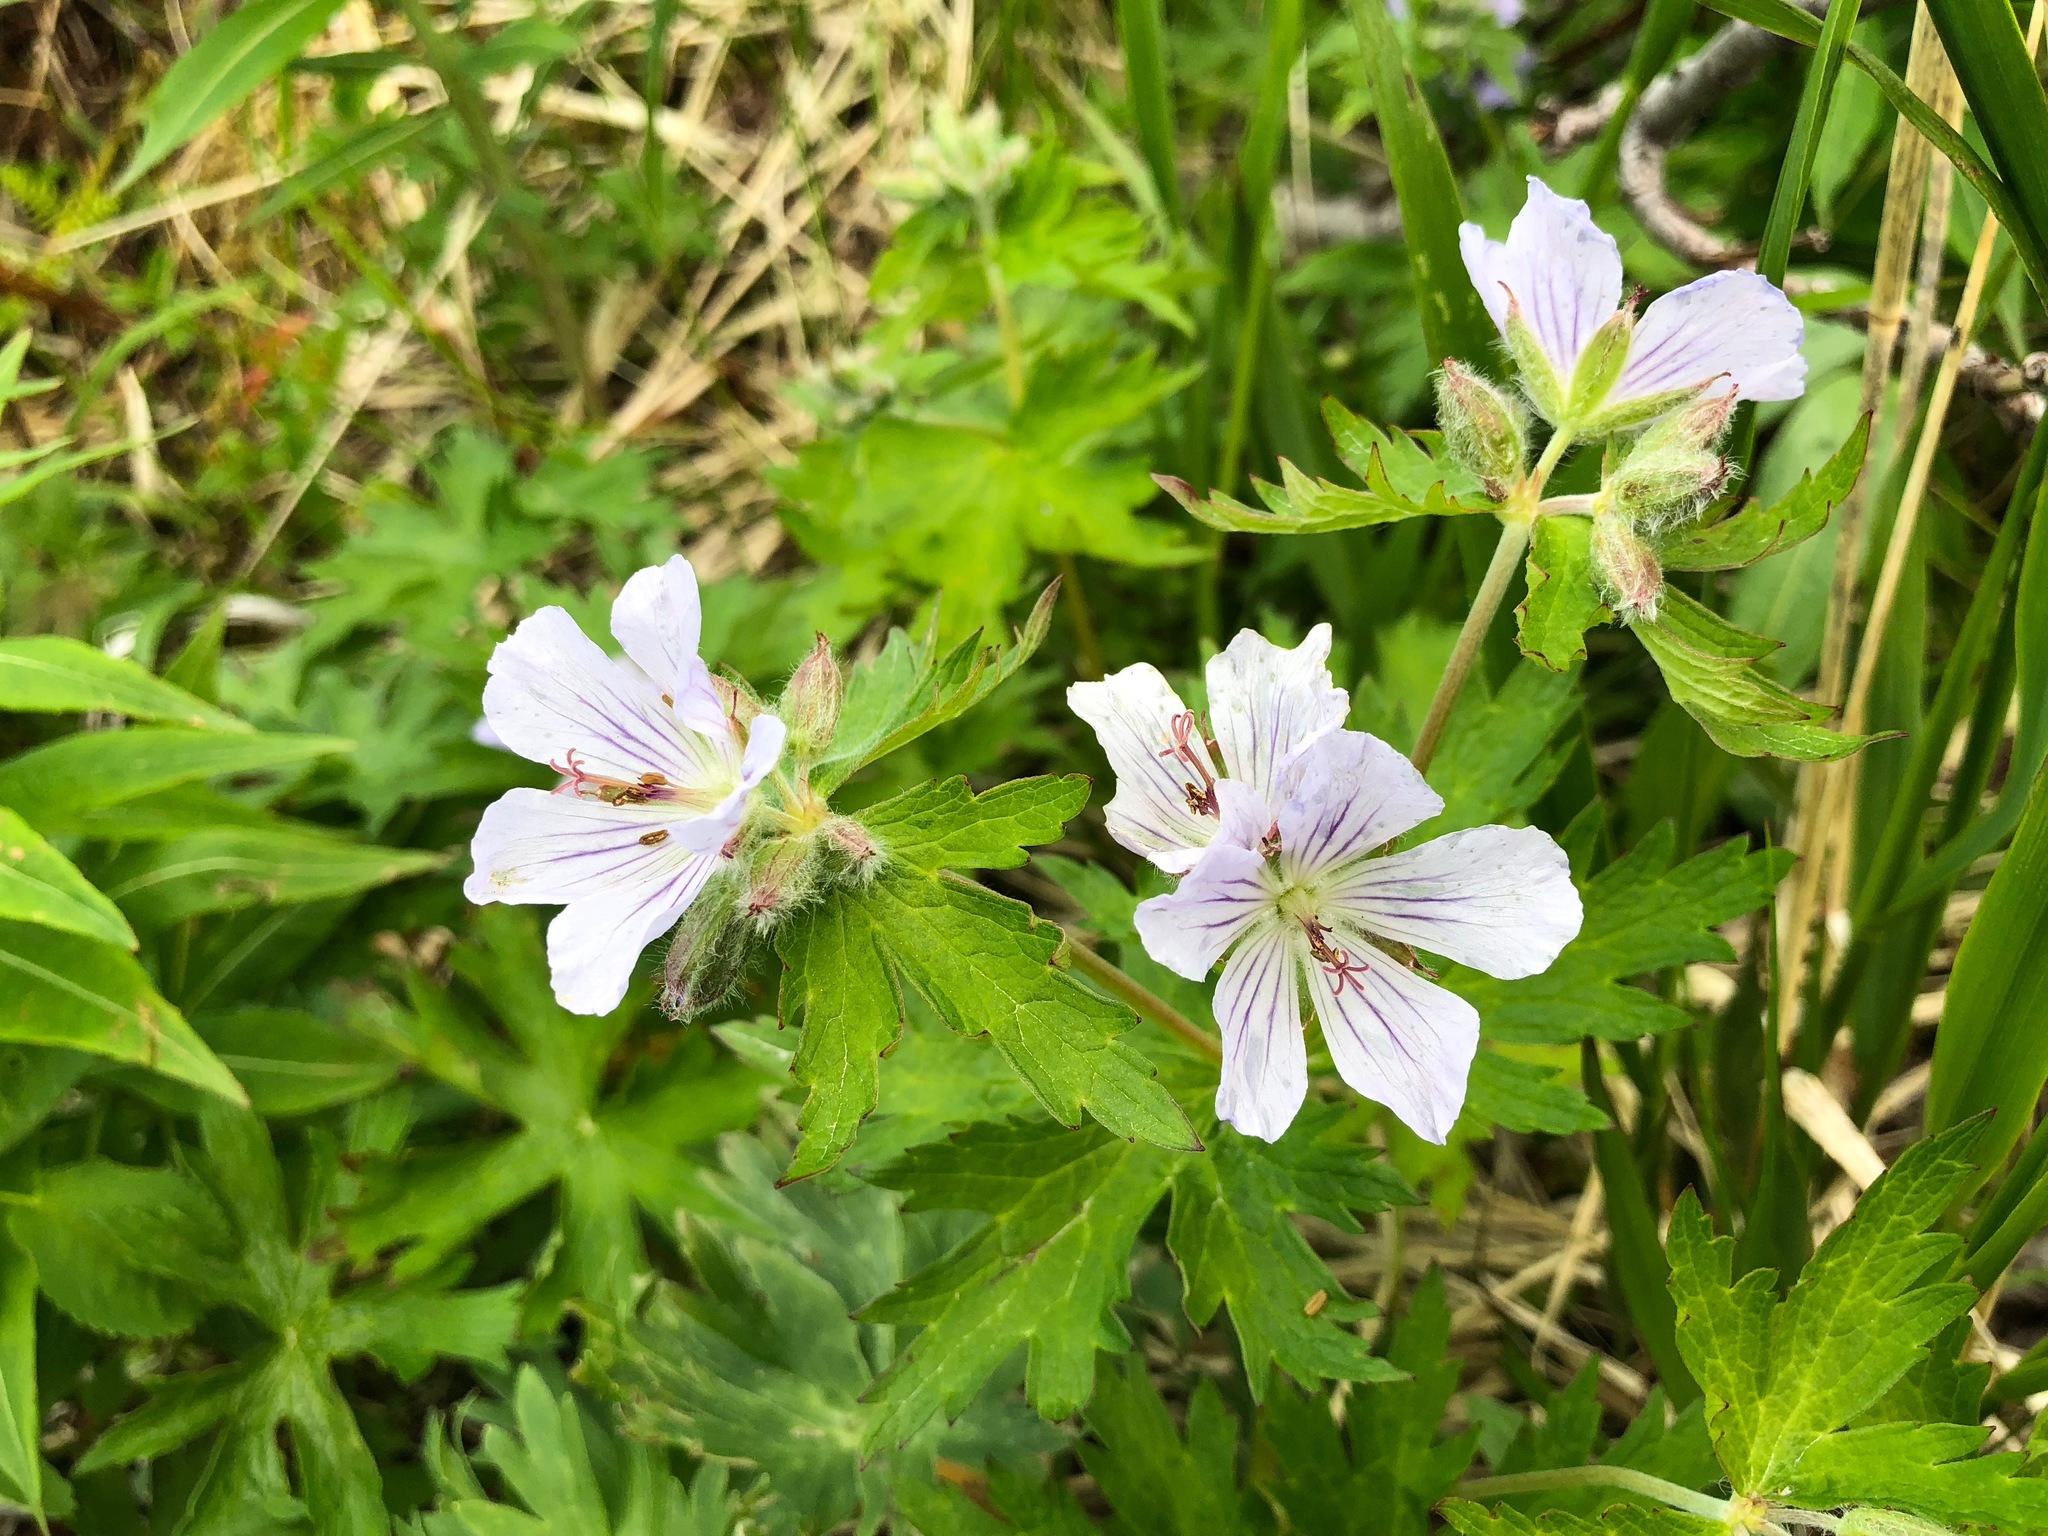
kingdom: Plantae
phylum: Tracheophyta
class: Magnoliopsida
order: Geraniales
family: Geraniaceae
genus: Geranium
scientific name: Geranium erianthum
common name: Northern crane's-bill
